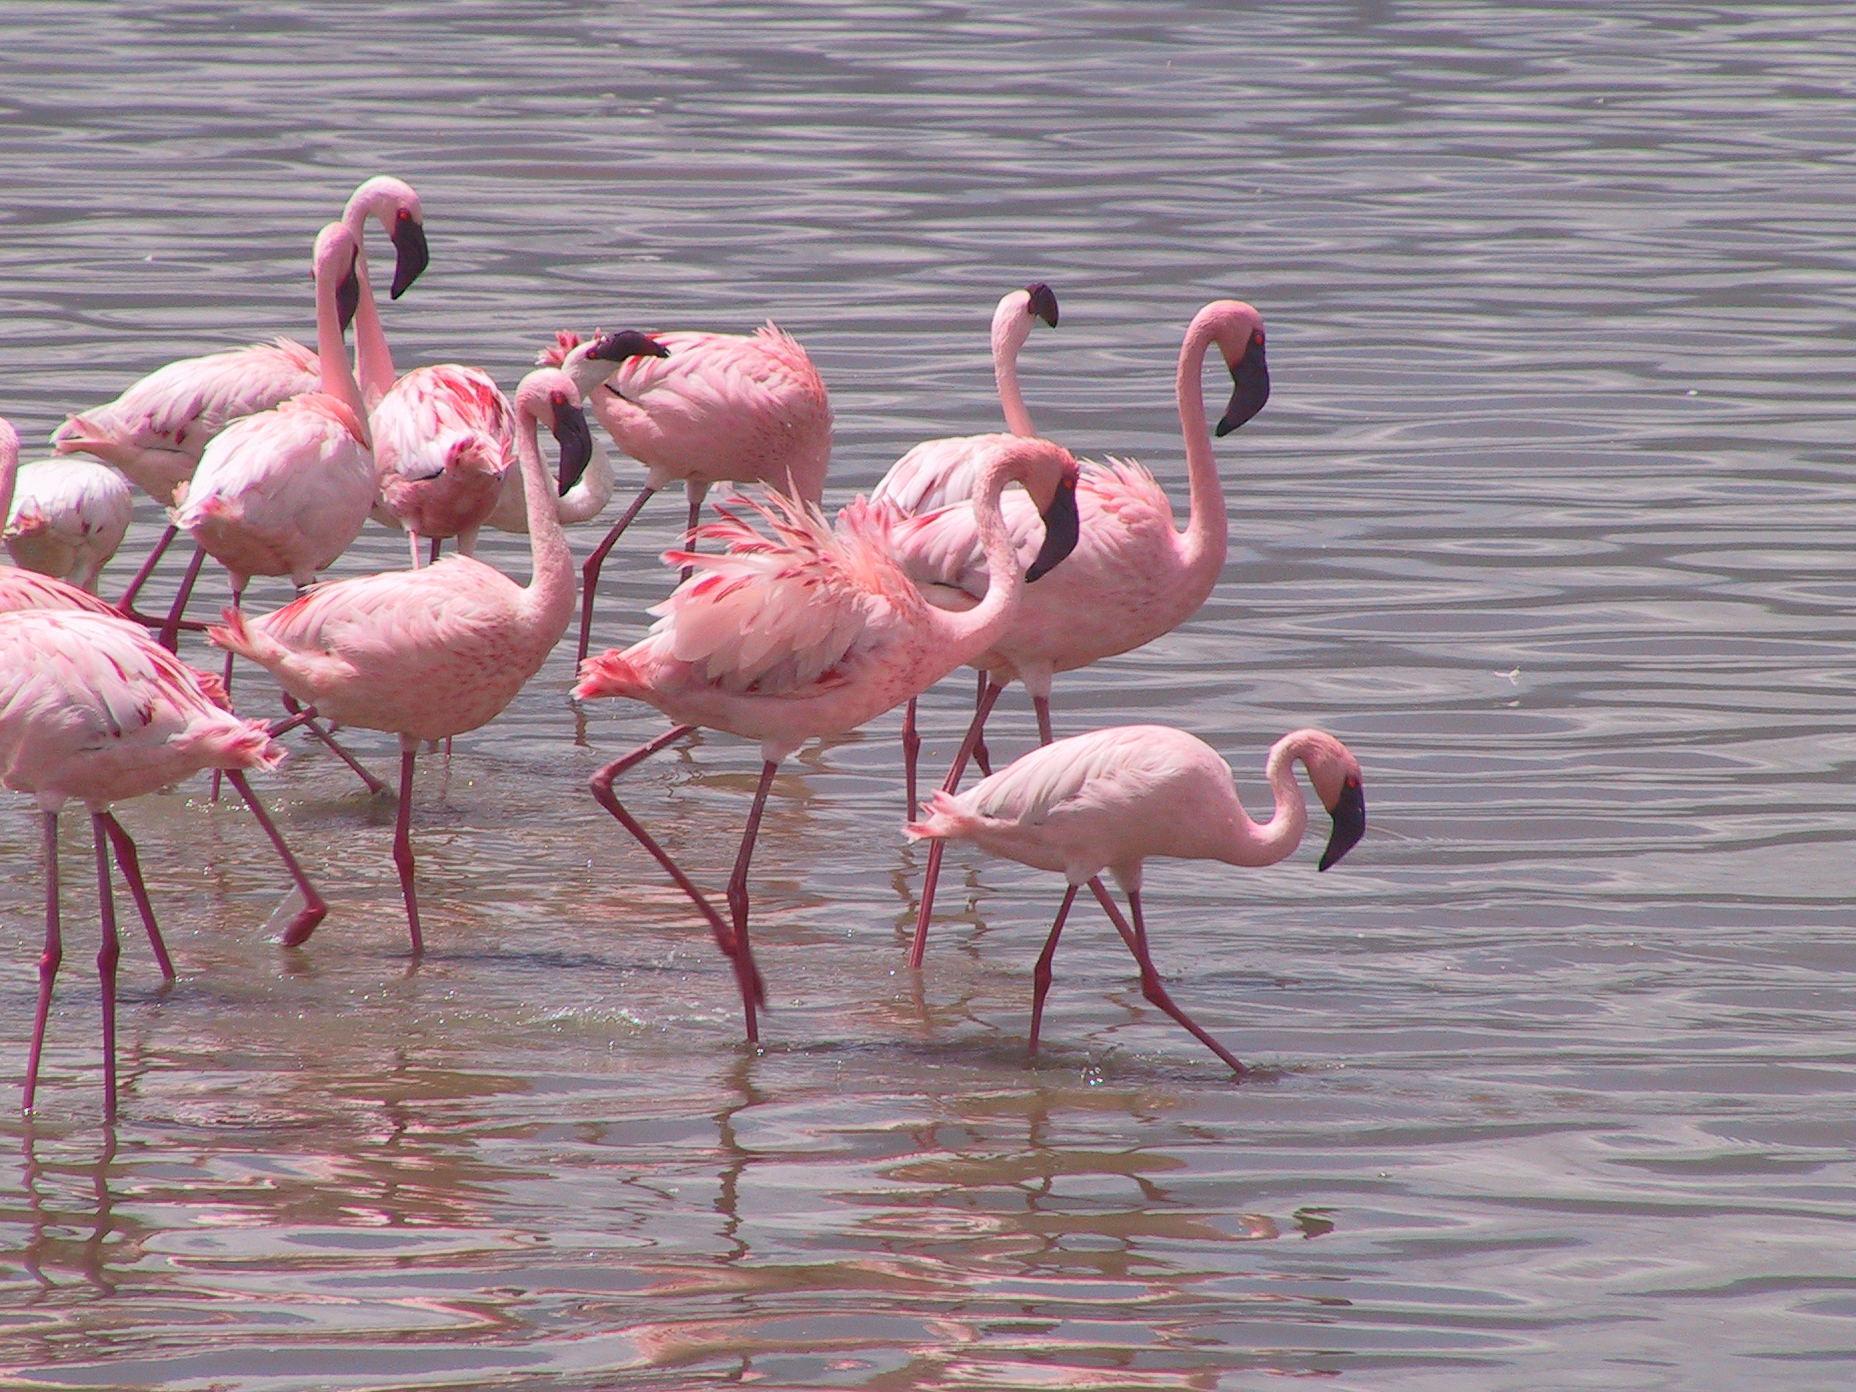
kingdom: Animalia
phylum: Chordata
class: Aves
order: Phoenicopteriformes
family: Phoenicopteridae
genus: Phoeniconaias
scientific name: Phoeniconaias minor
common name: Lesser flamingo
